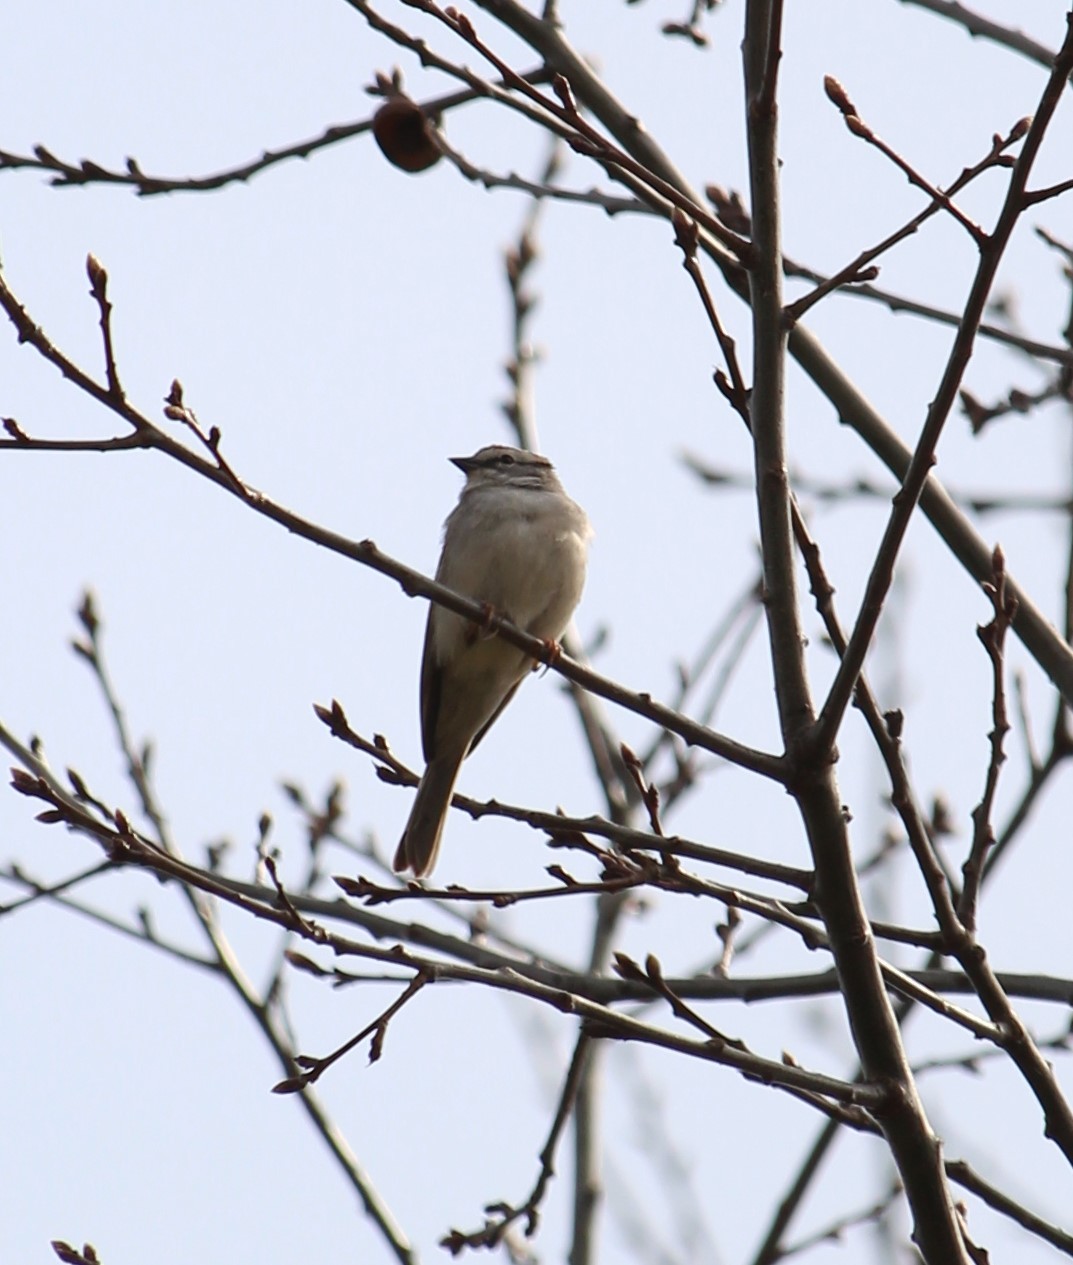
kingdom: Animalia
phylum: Chordata
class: Aves
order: Passeriformes
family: Passerellidae
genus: Spizella
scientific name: Spizella passerina
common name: Chipping sparrow
